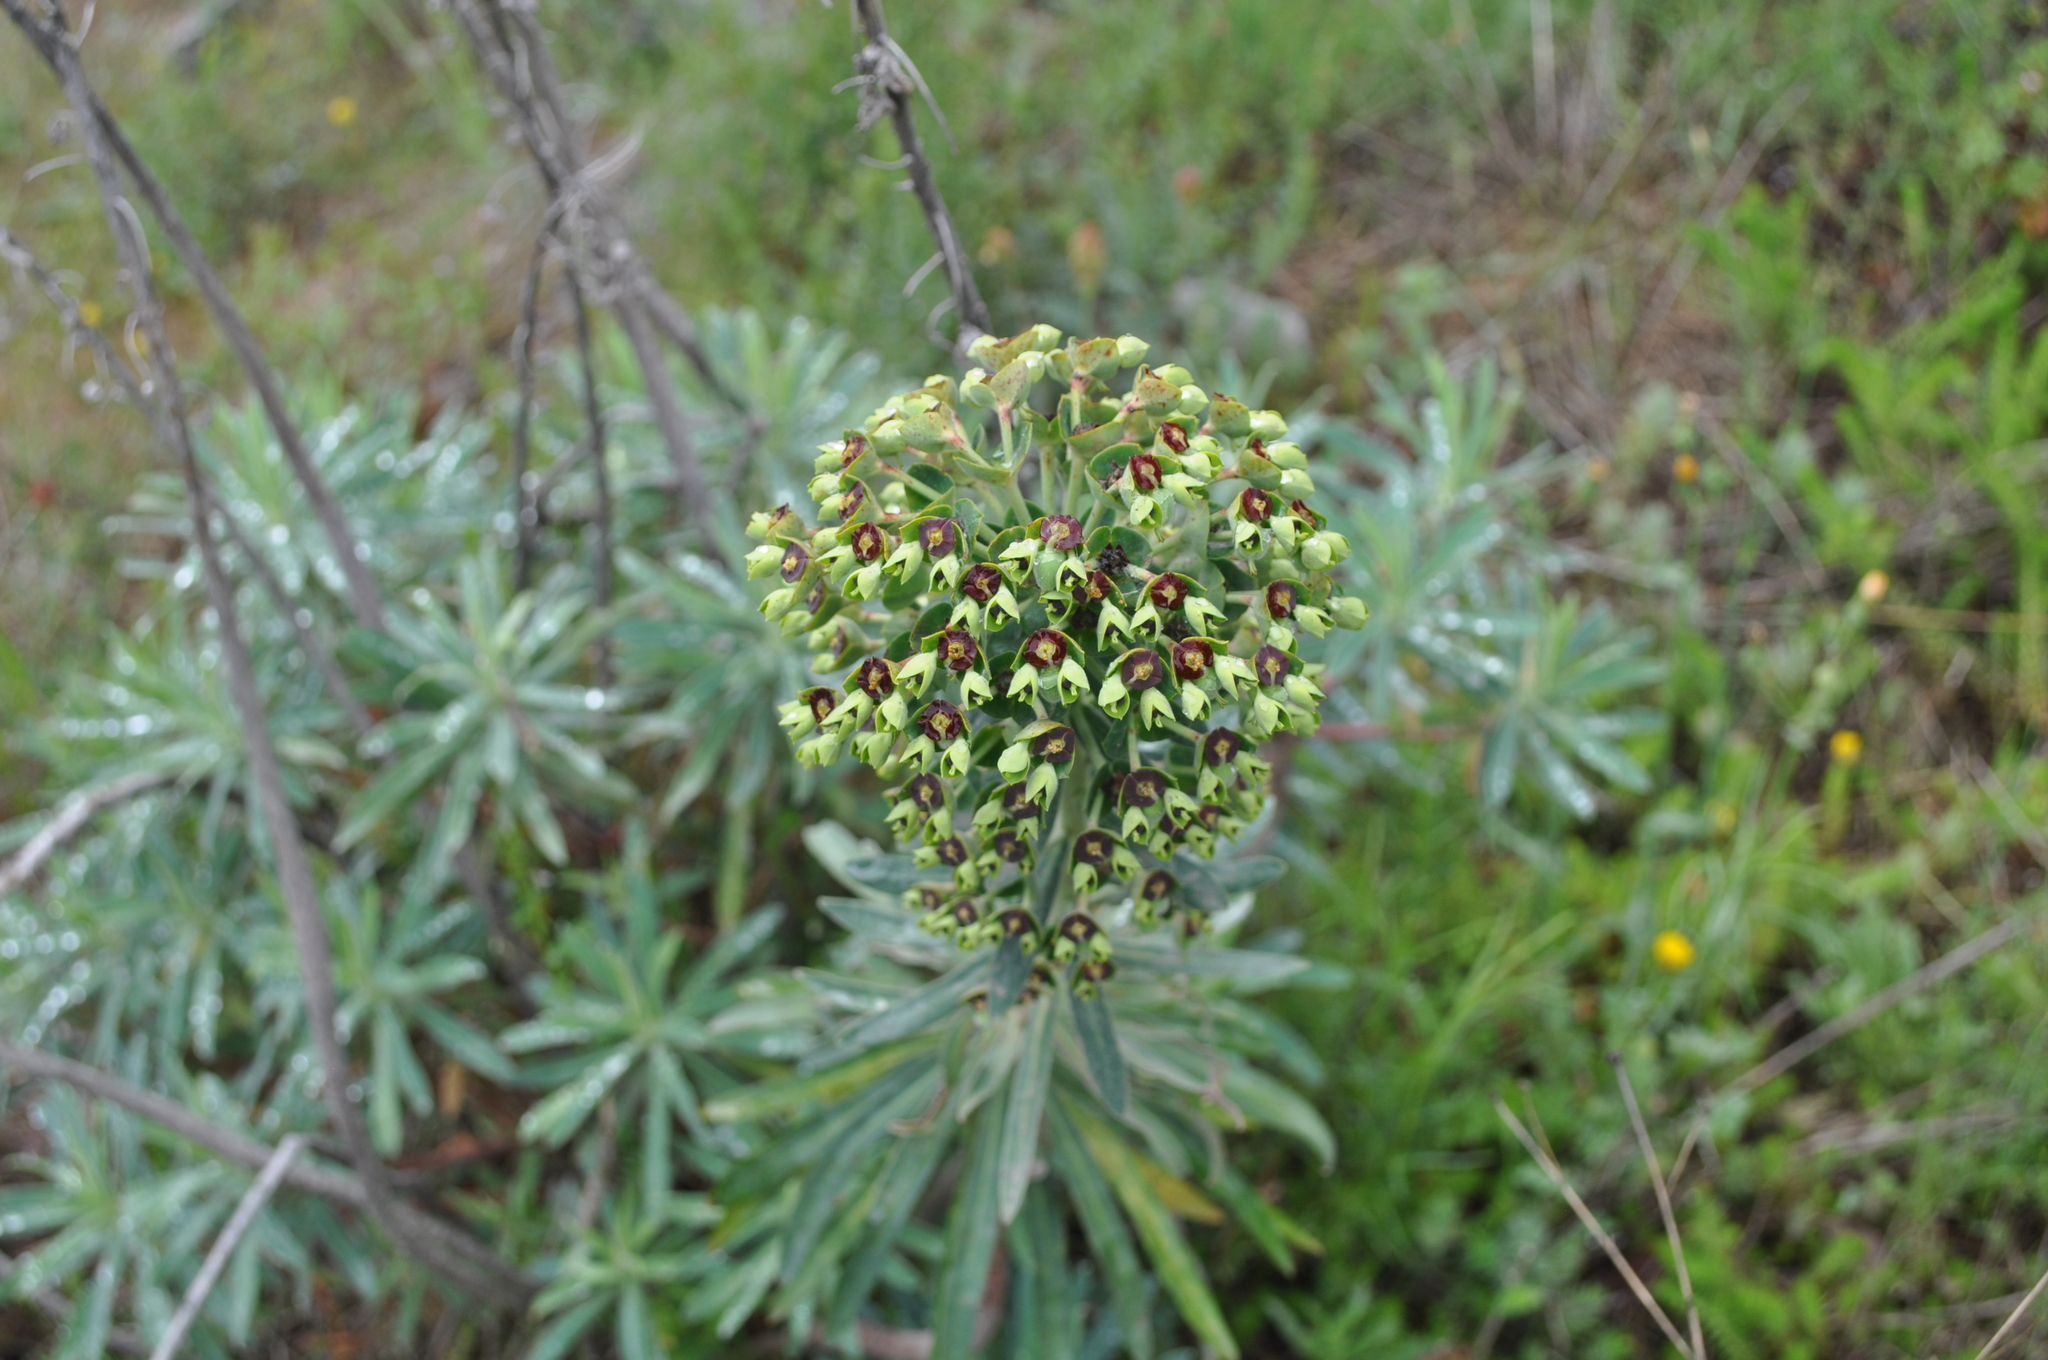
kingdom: Plantae
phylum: Tracheophyta
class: Magnoliopsida
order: Malpighiales
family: Euphorbiaceae
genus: Euphorbia
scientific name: Euphorbia characias
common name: Mediterranean spurge
